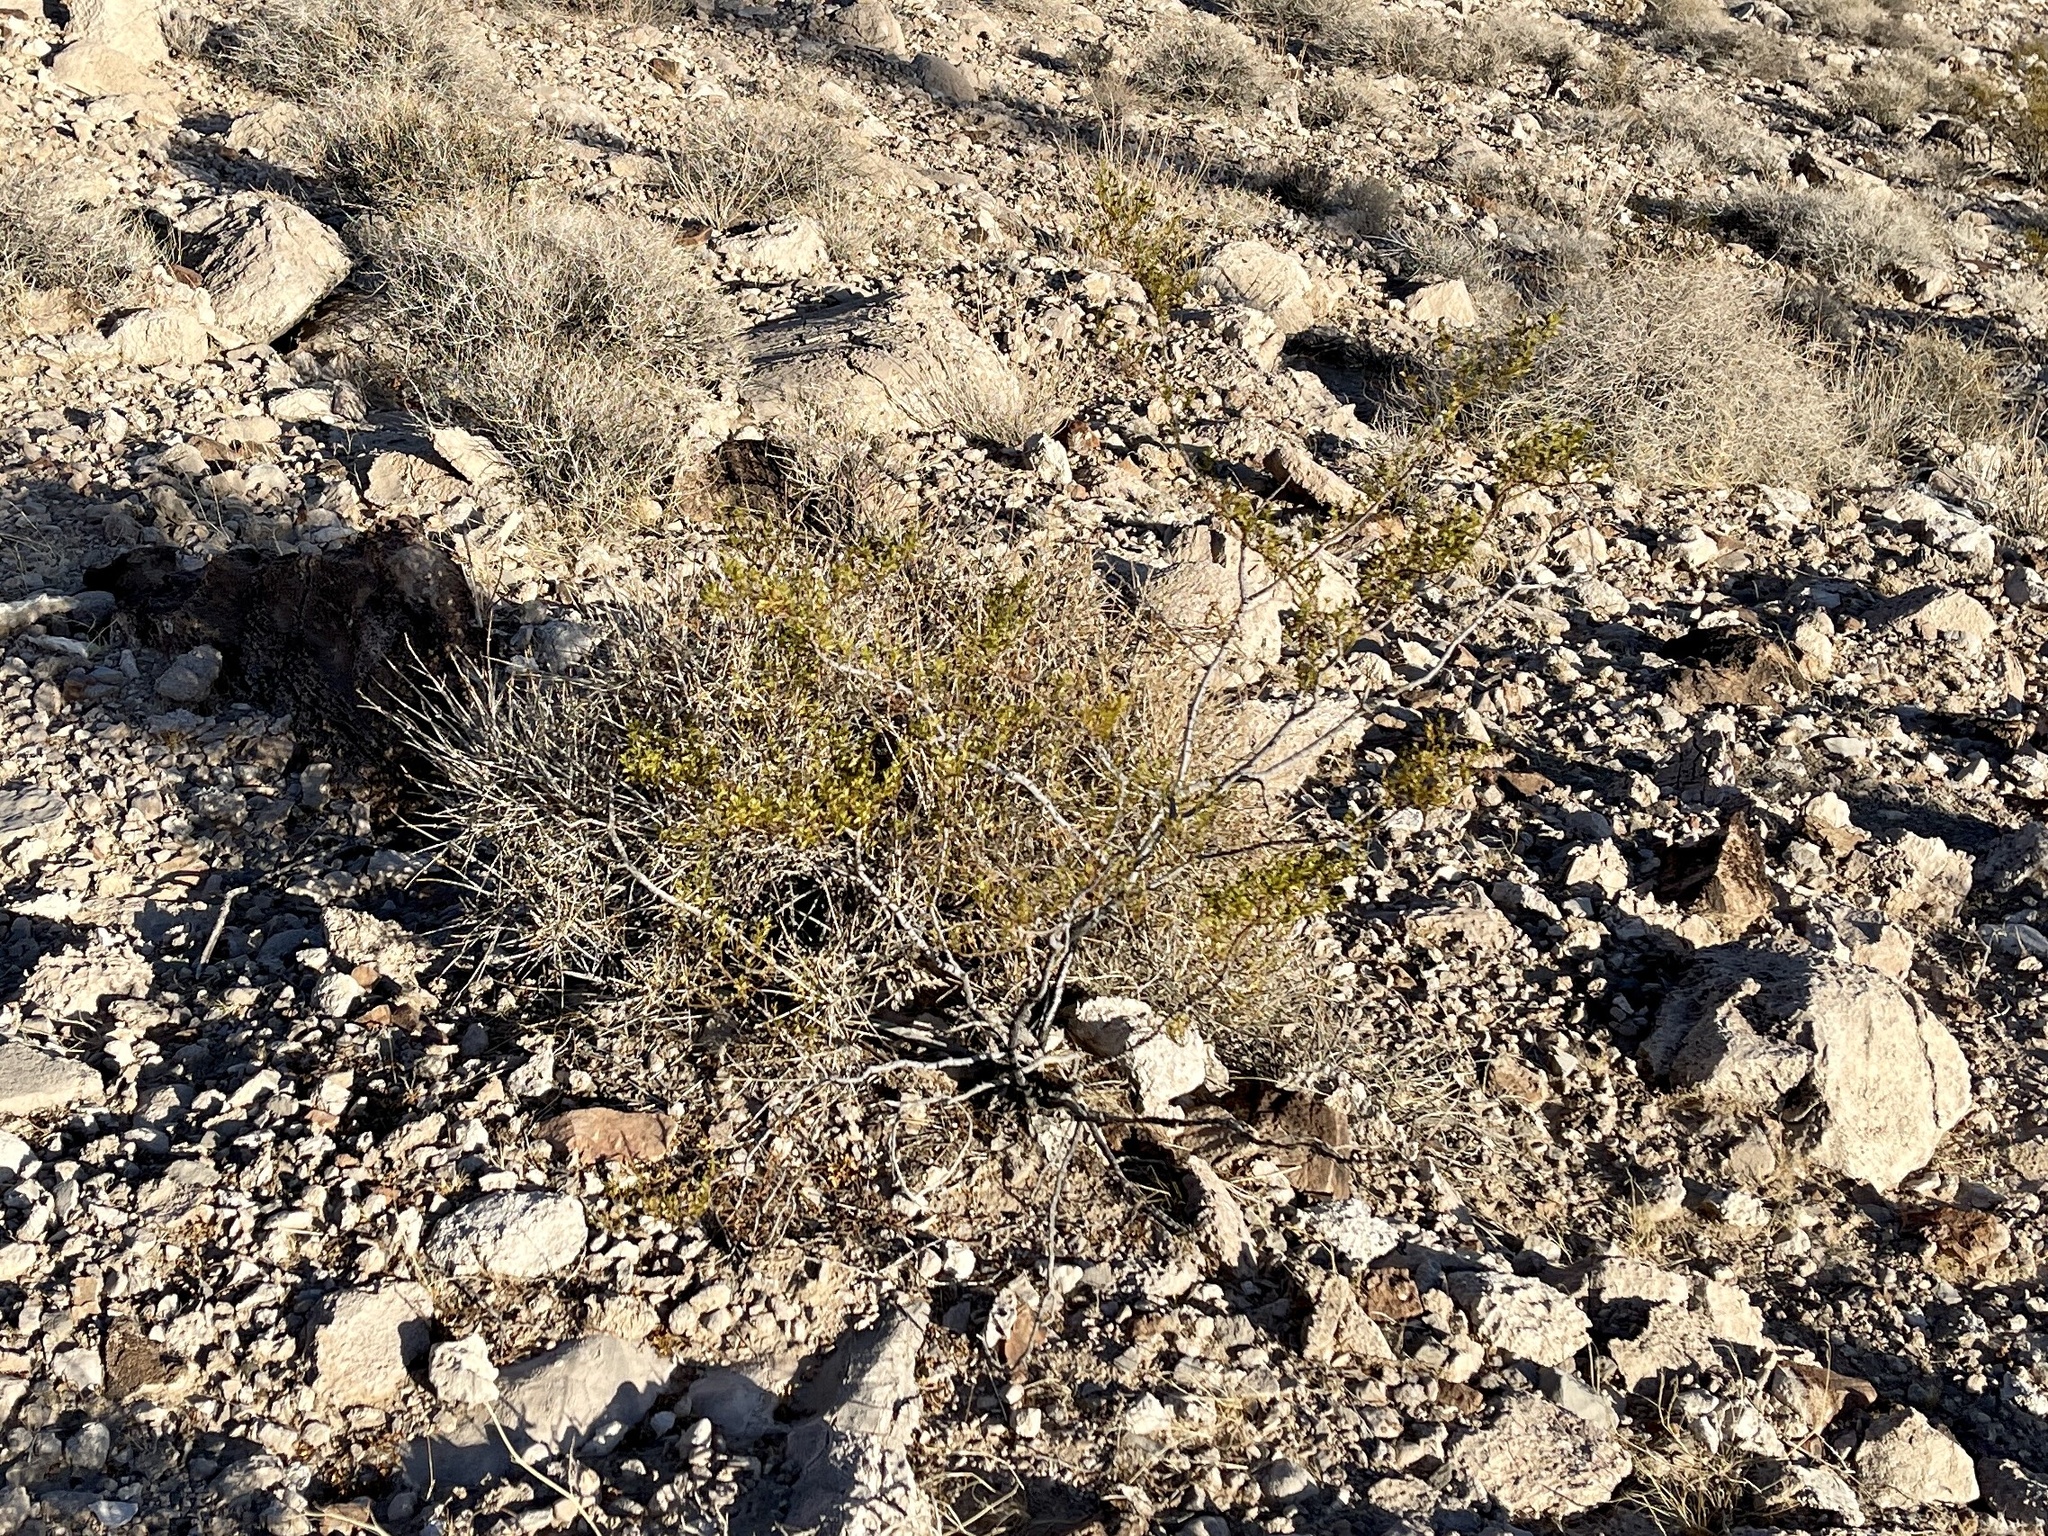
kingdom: Plantae
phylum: Tracheophyta
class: Magnoliopsida
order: Zygophyllales
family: Zygophyllaceae
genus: Larrea
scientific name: Larrea tridentata
